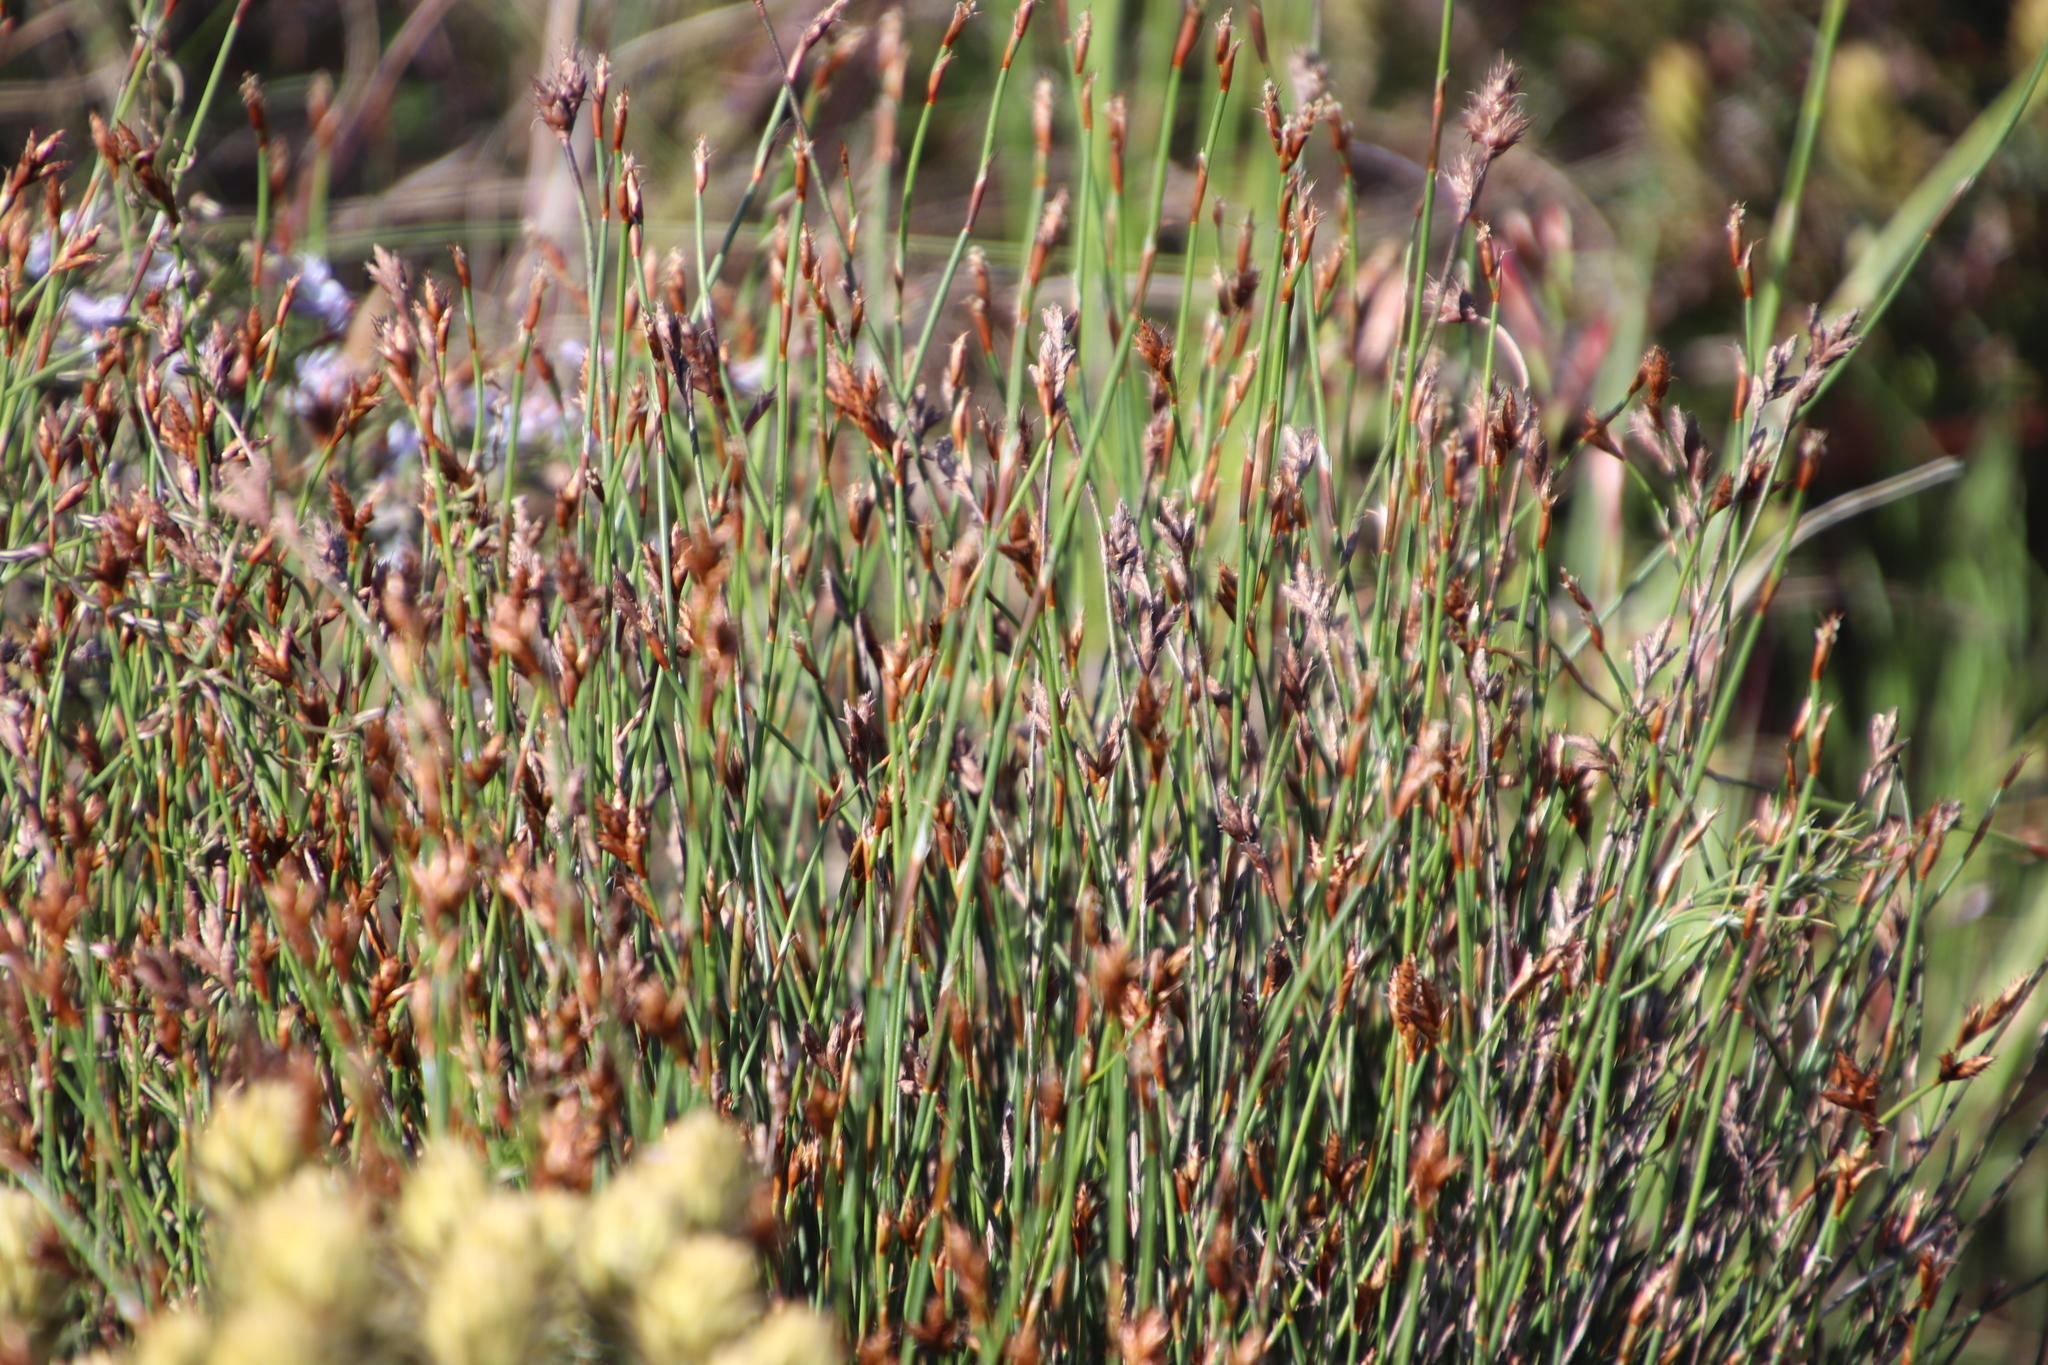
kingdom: Plantae
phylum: Tracheophyta
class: Liliopsida
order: Poales
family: Restionaceae
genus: Restio
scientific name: Restio capensis
